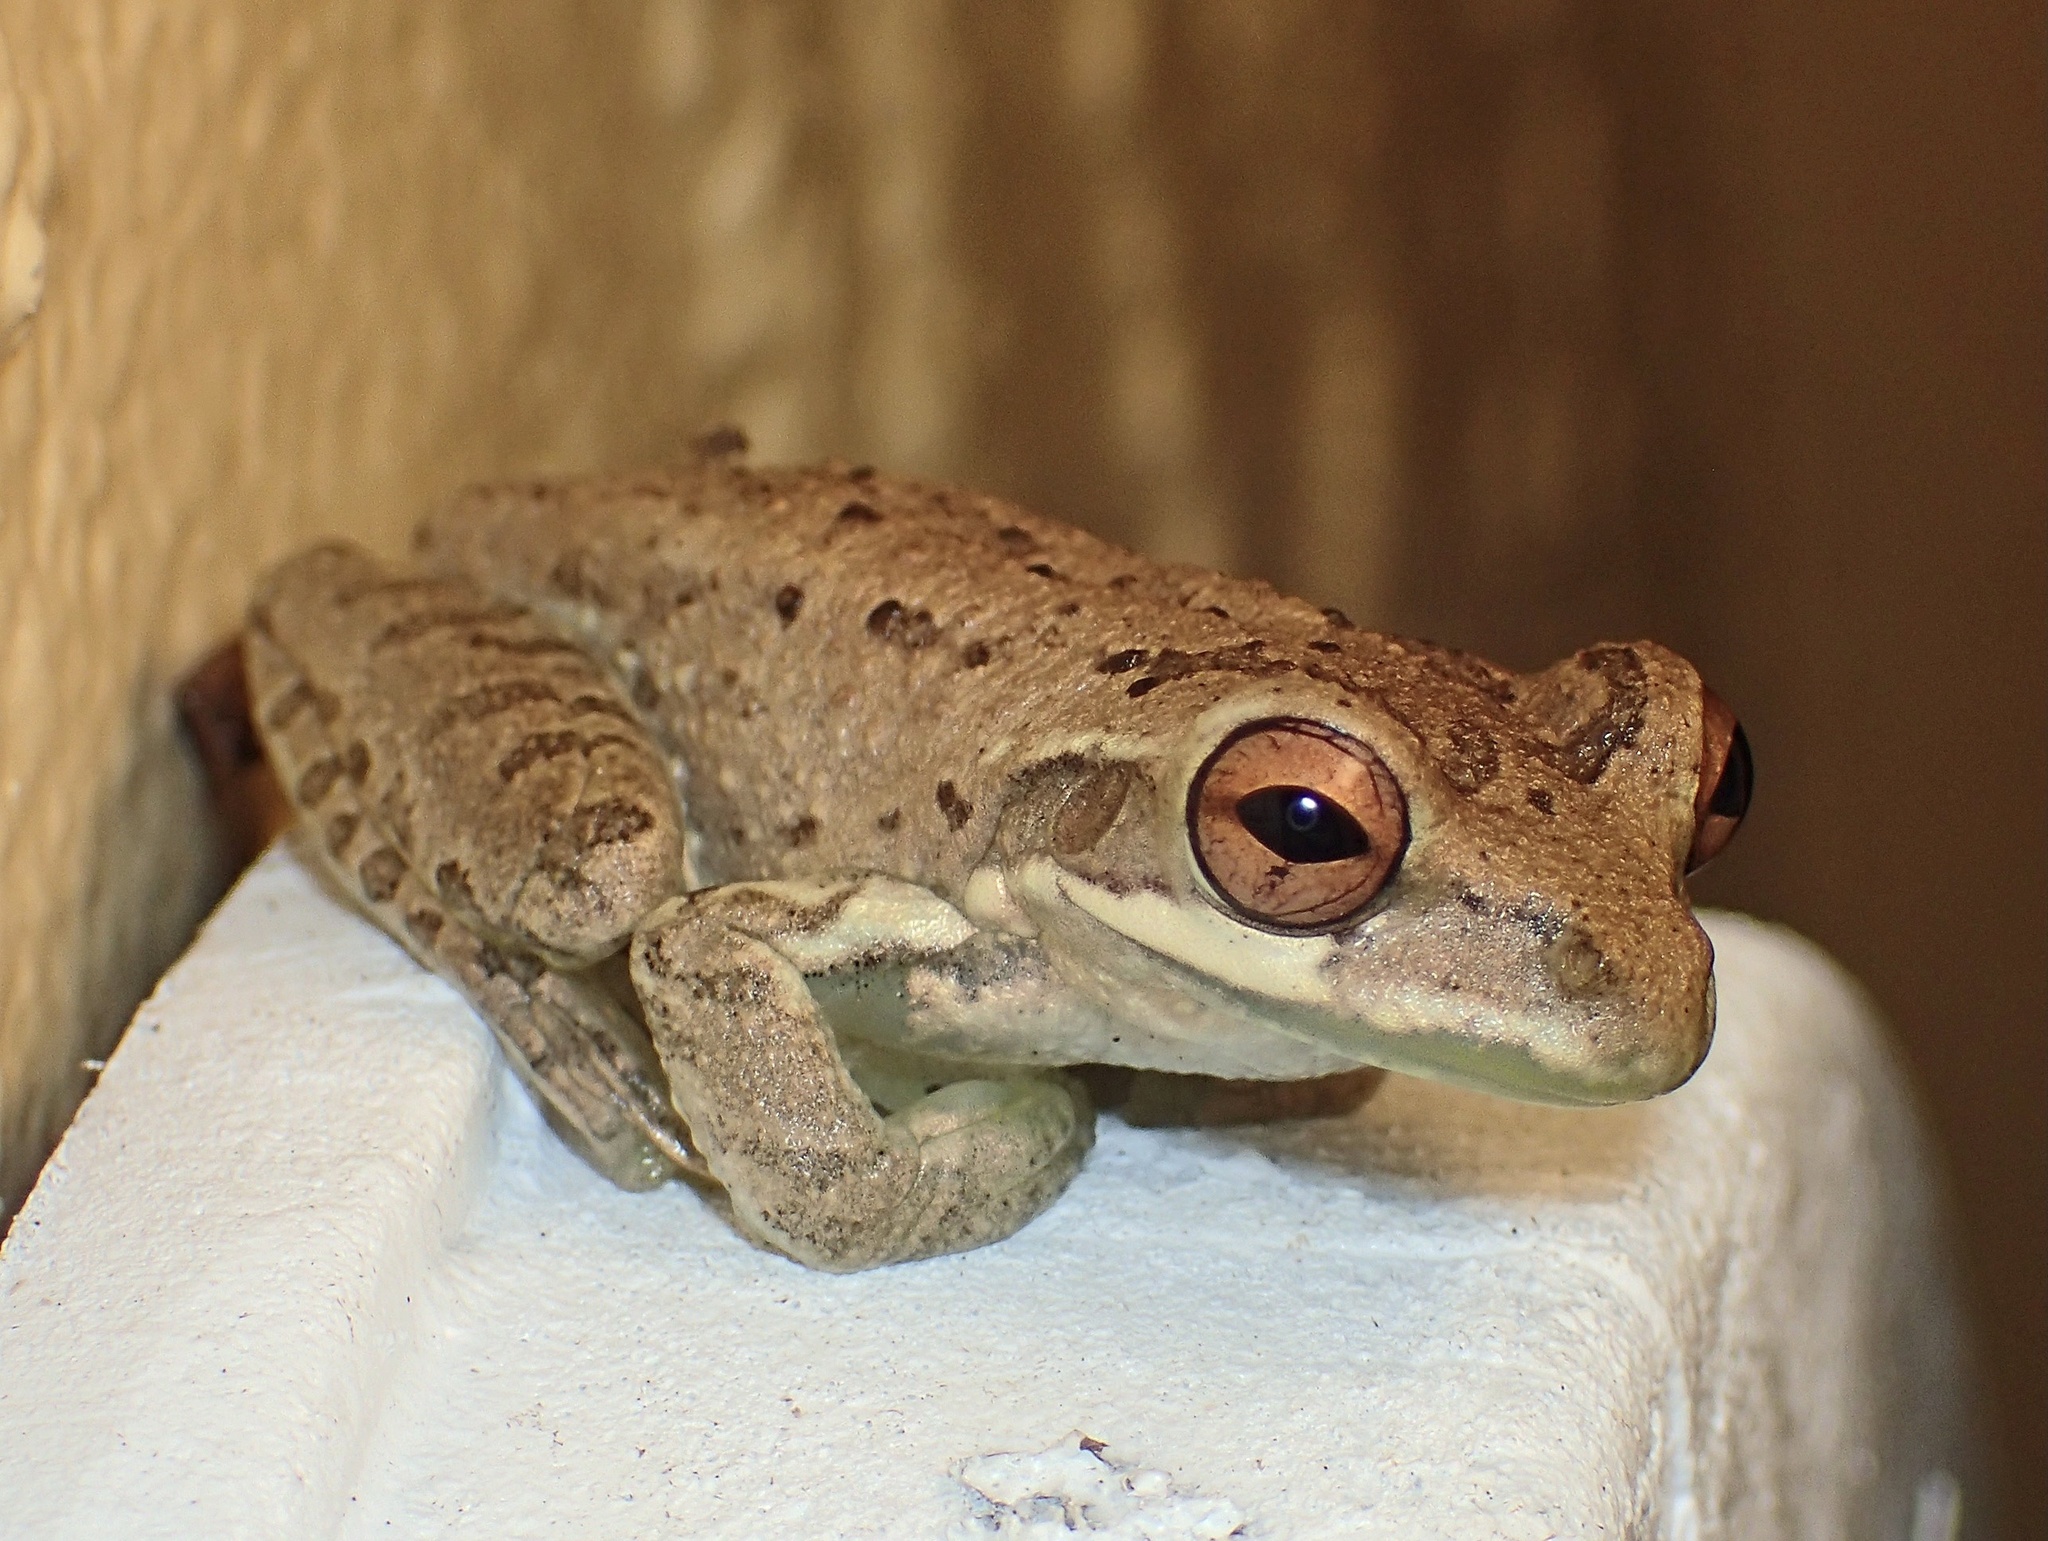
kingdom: Animalia
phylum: Chordata
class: Amphibia
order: Anura
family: Hylidae
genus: Osteopilus
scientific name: Osteopilus septentrionalis
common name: Cuban treefrog
